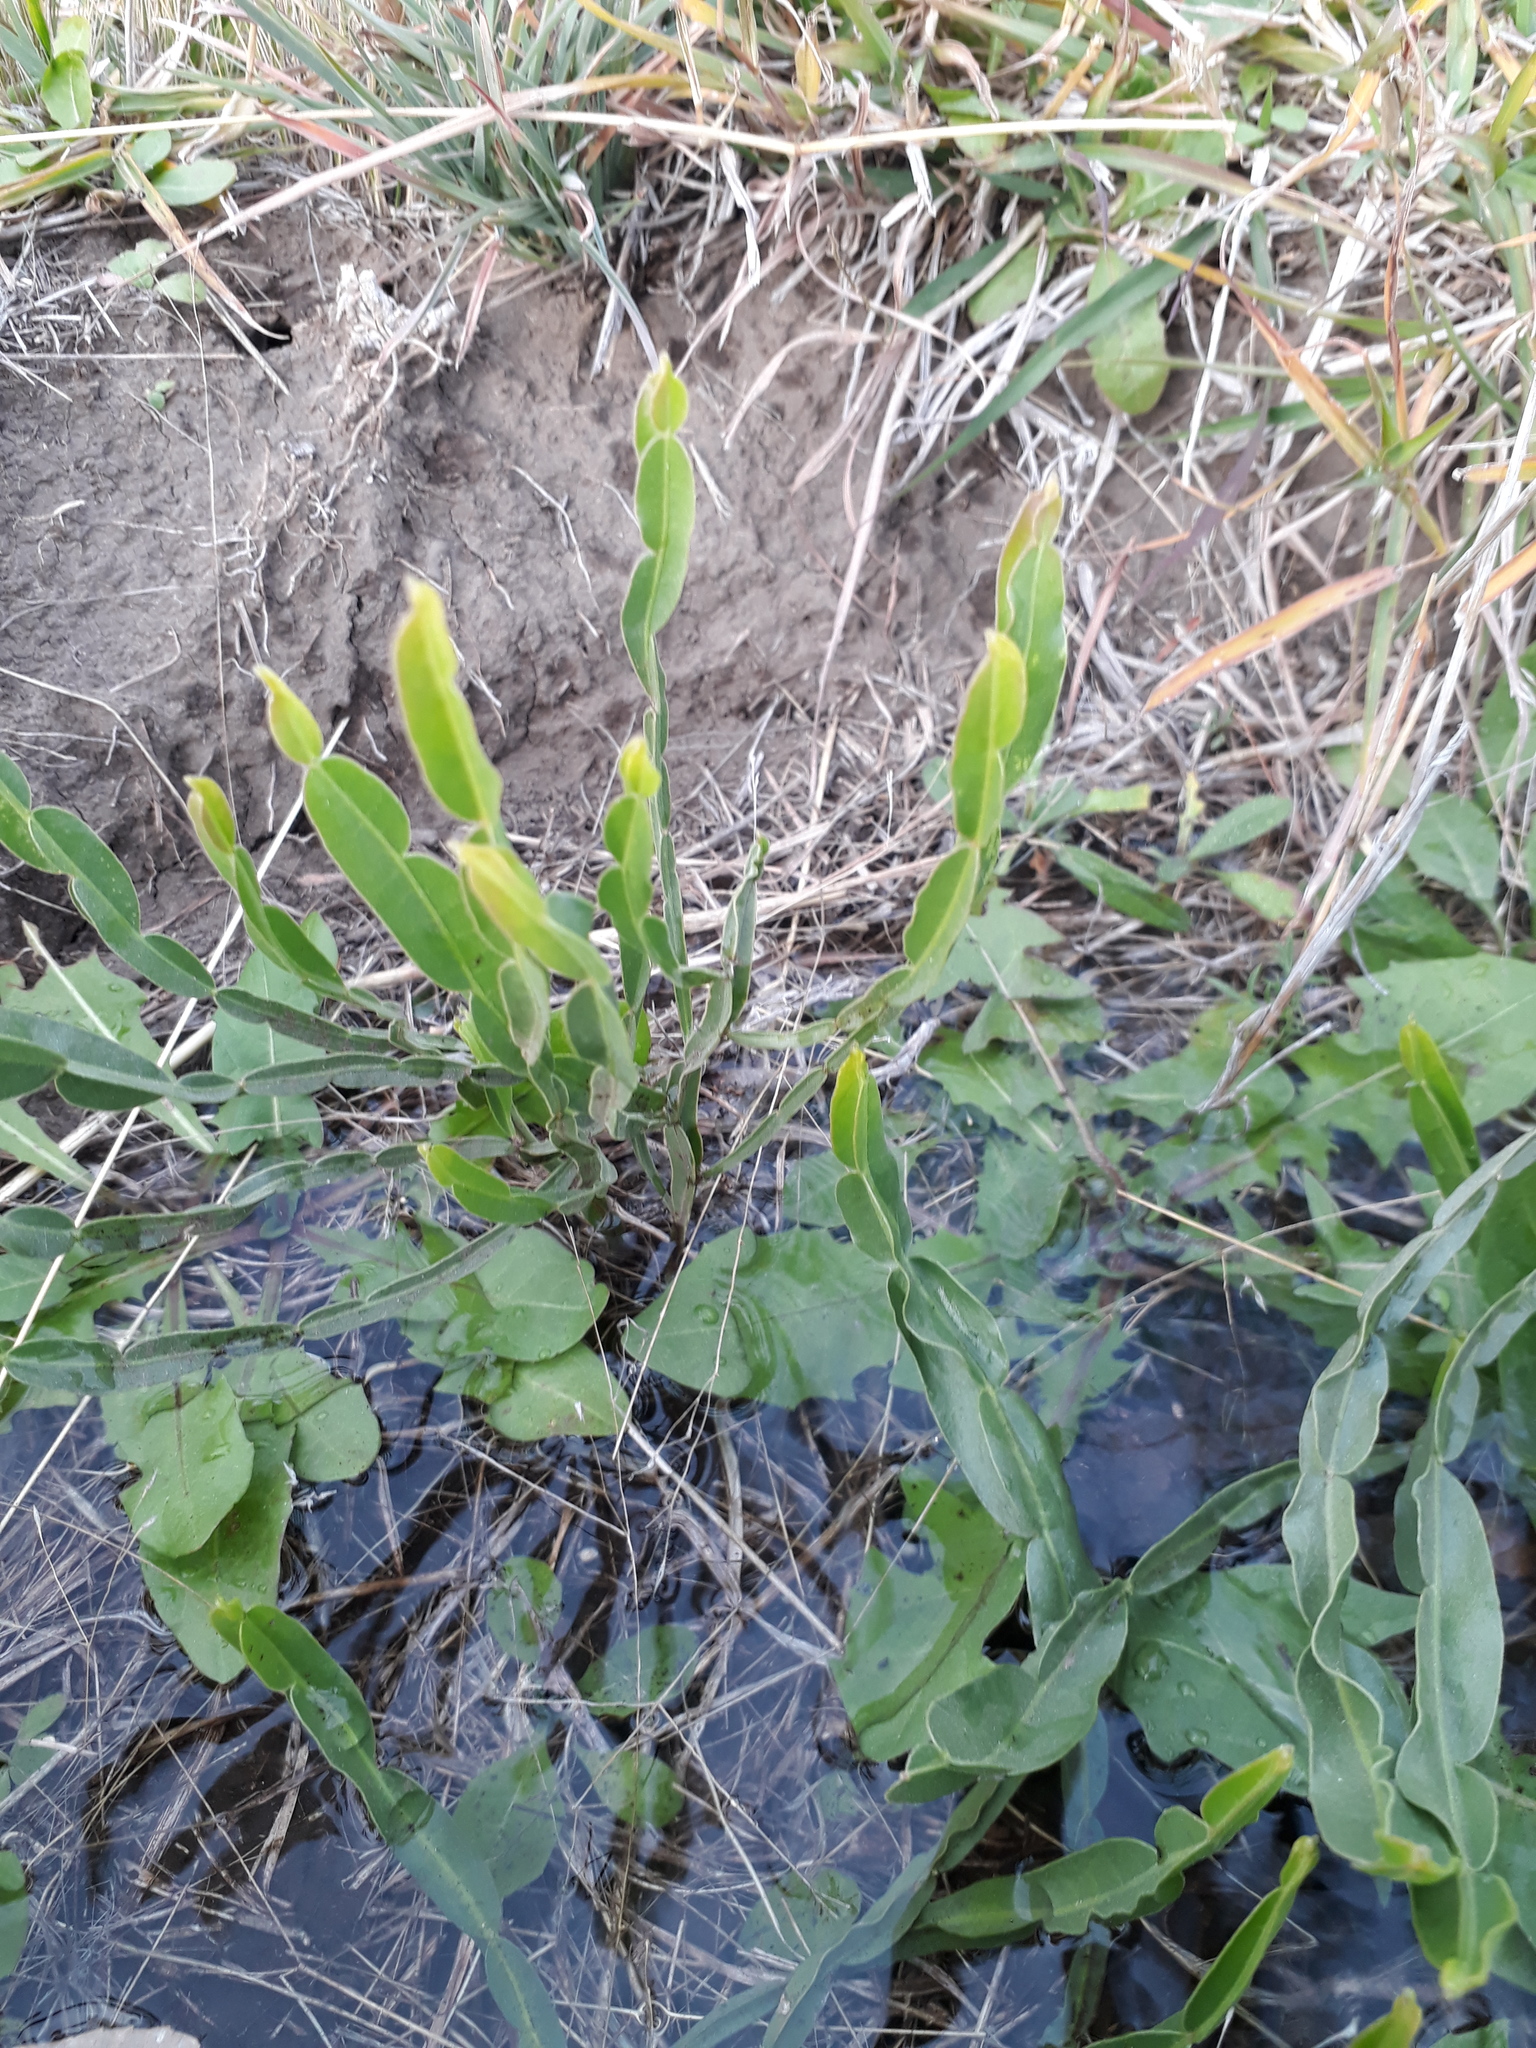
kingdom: Plantae
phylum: Tracheophyta
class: Magnoliopsida
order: Asterales
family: Asteraceae
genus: Baccharis
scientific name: Baccharis trimera
